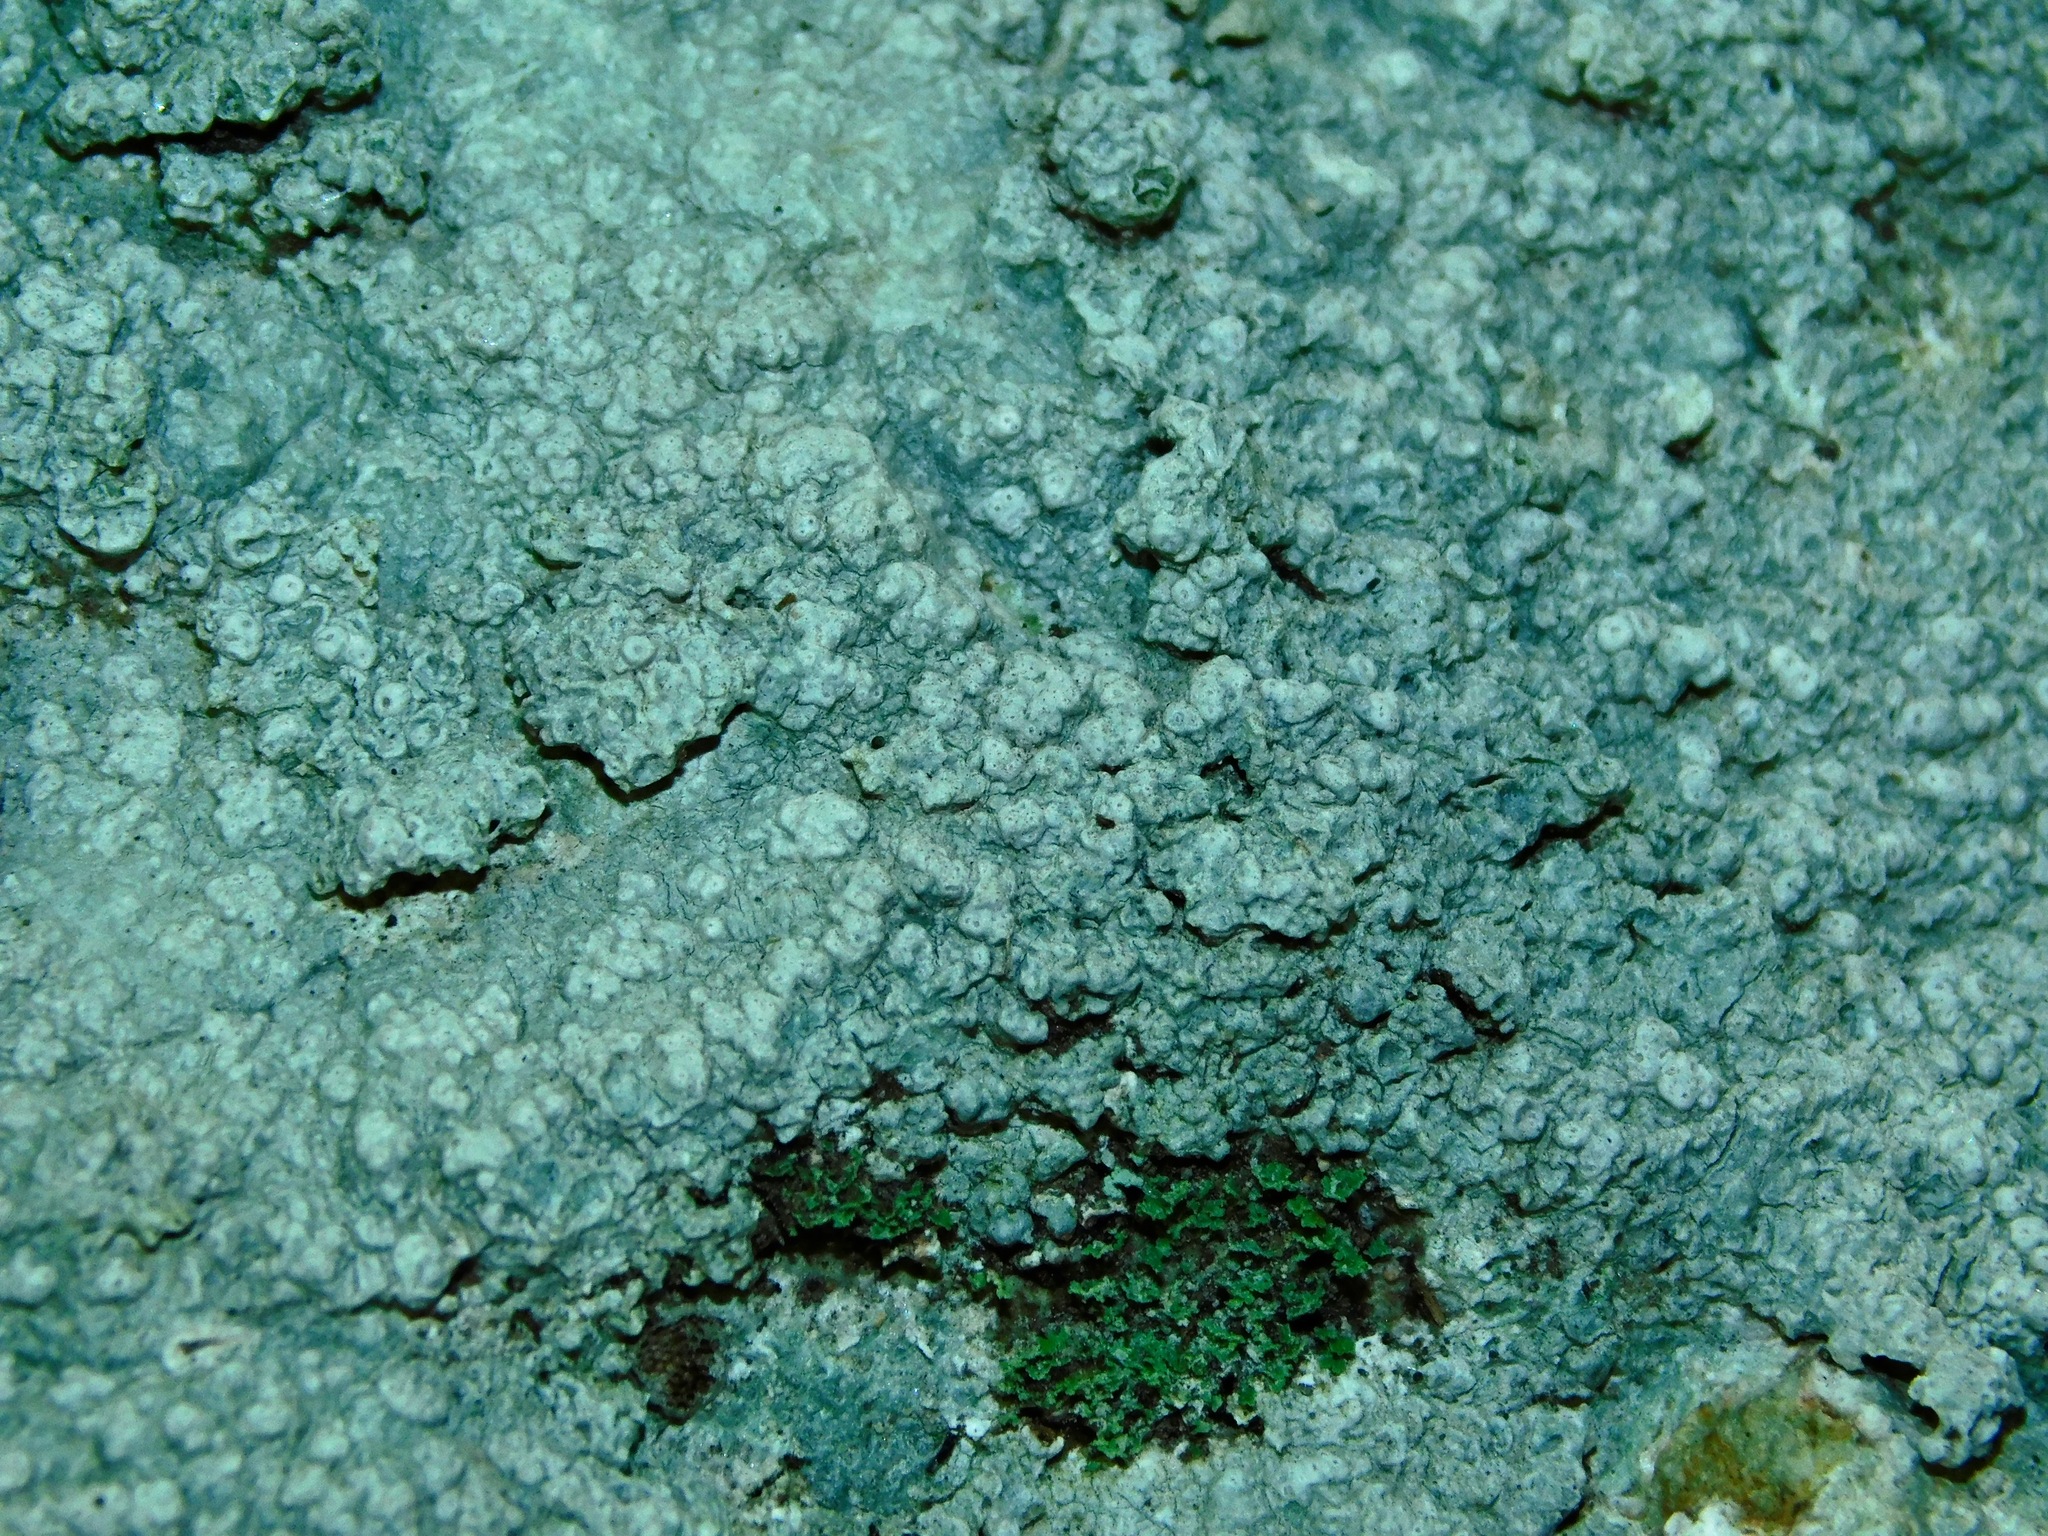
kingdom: Fungi
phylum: Ascomycota
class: Lecanoromycetes
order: Pertusariales
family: Pertusariaceae
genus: Pertusaria
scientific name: Pertusaria plittiana
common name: Rock wart lichen
